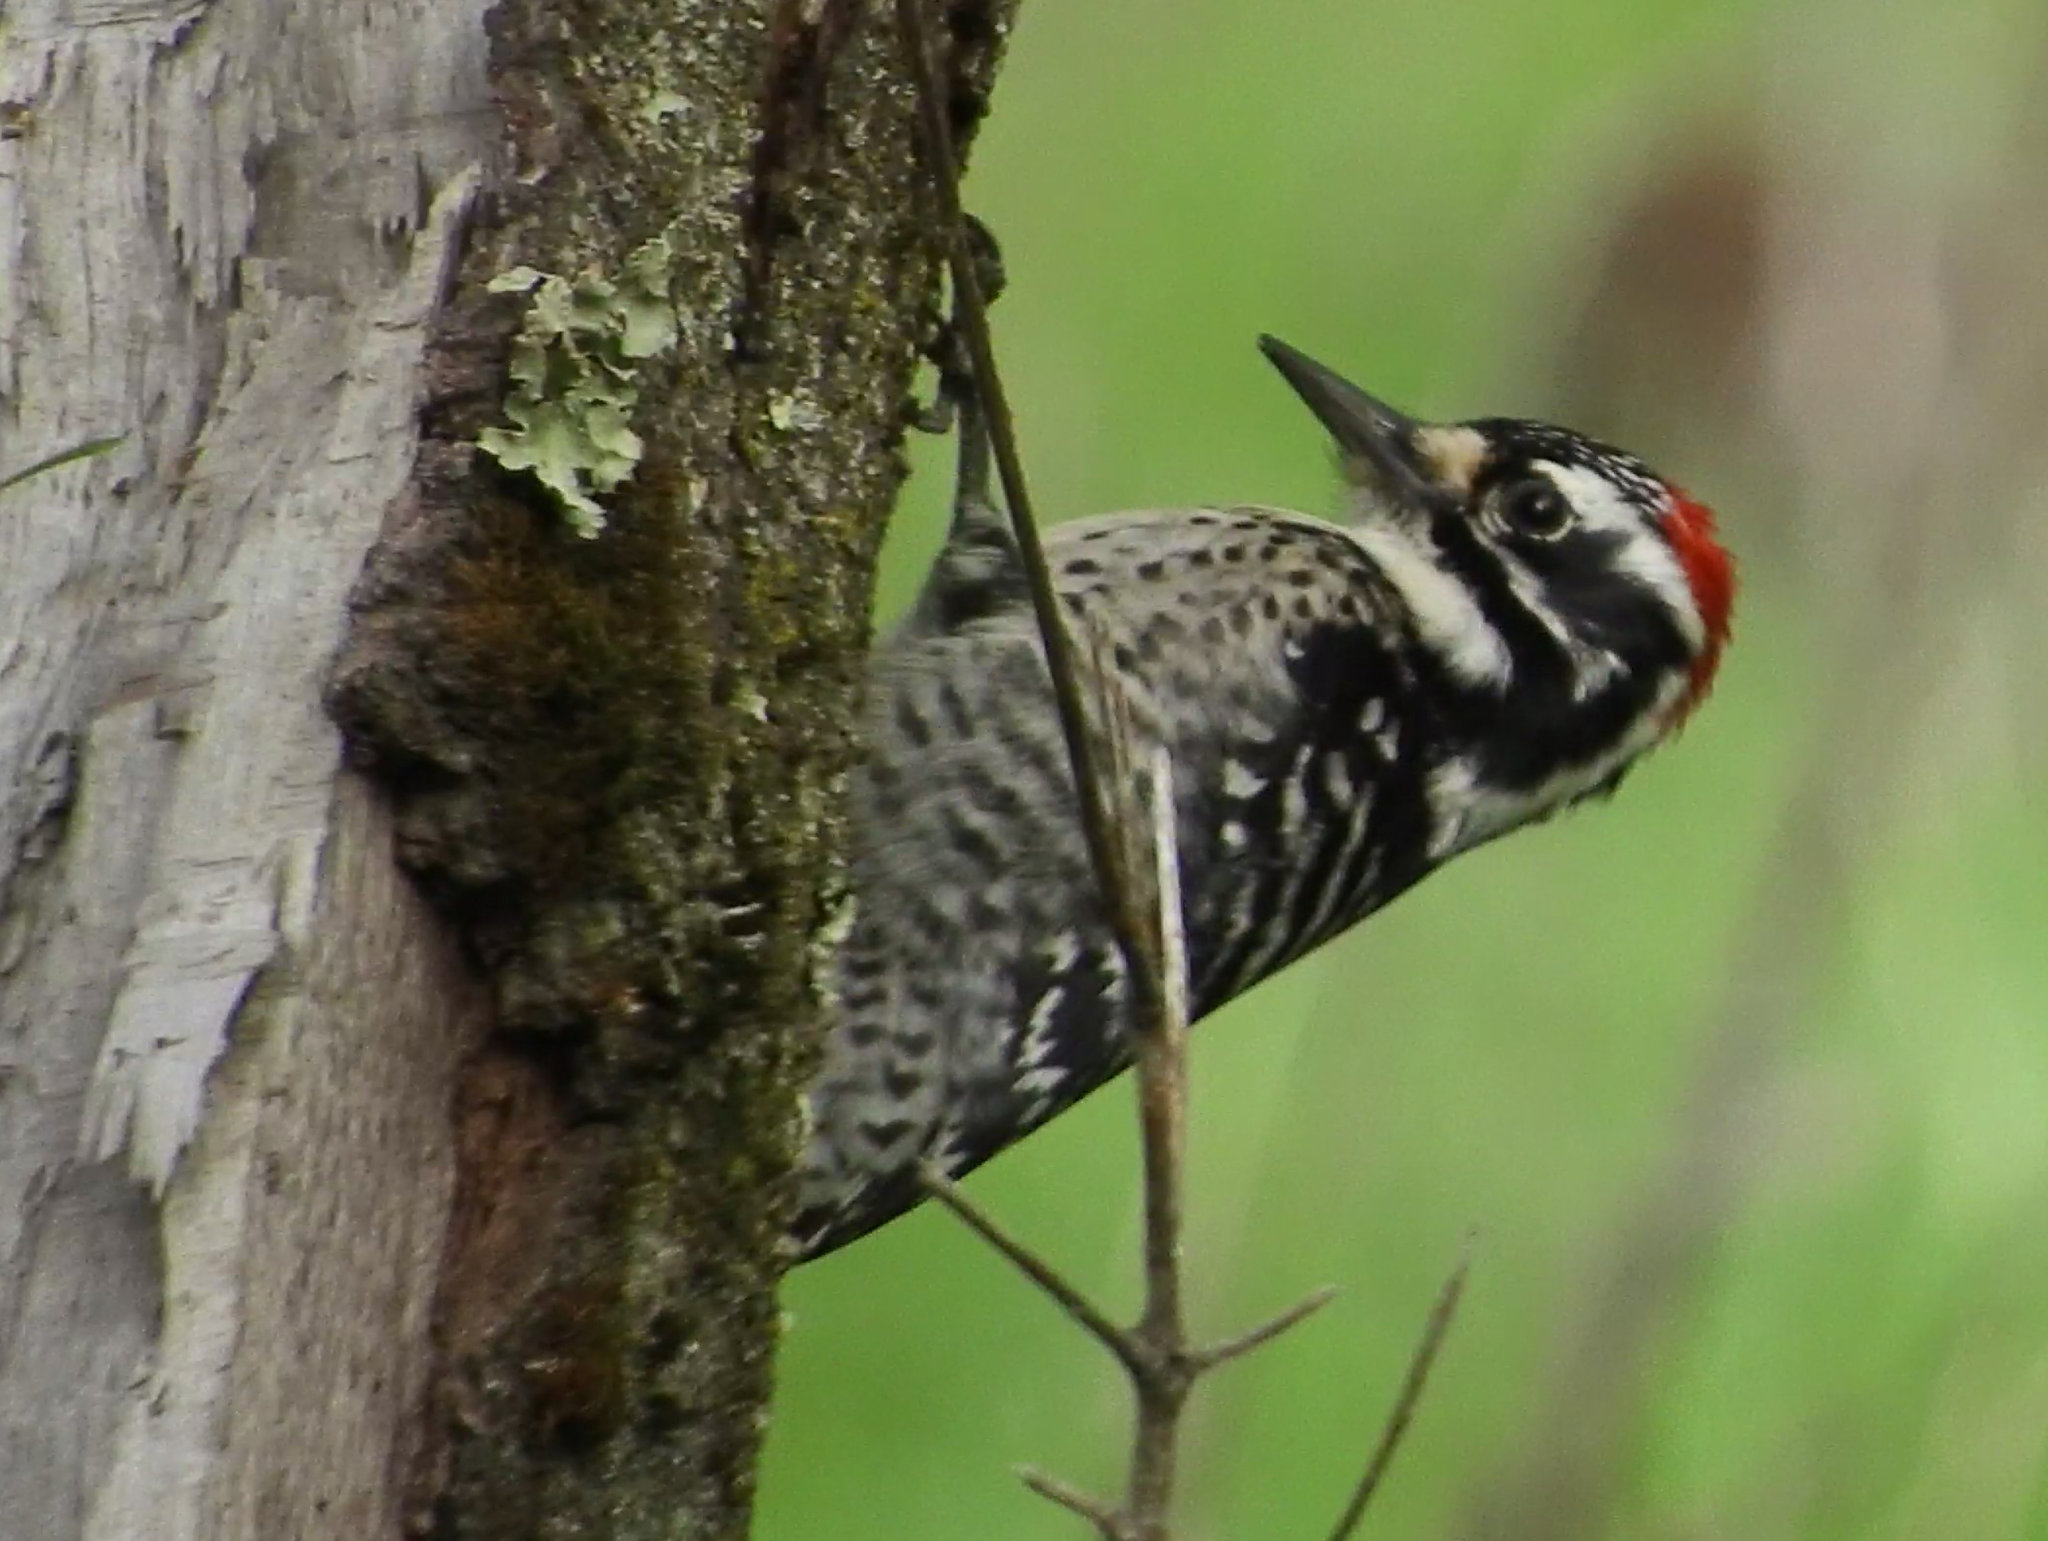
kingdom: Animalia
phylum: Chordata
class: Aves
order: Piciformes
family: Picidae
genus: Dryobates
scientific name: Dryobates nuttallii
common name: Nuttall's woodpecker
